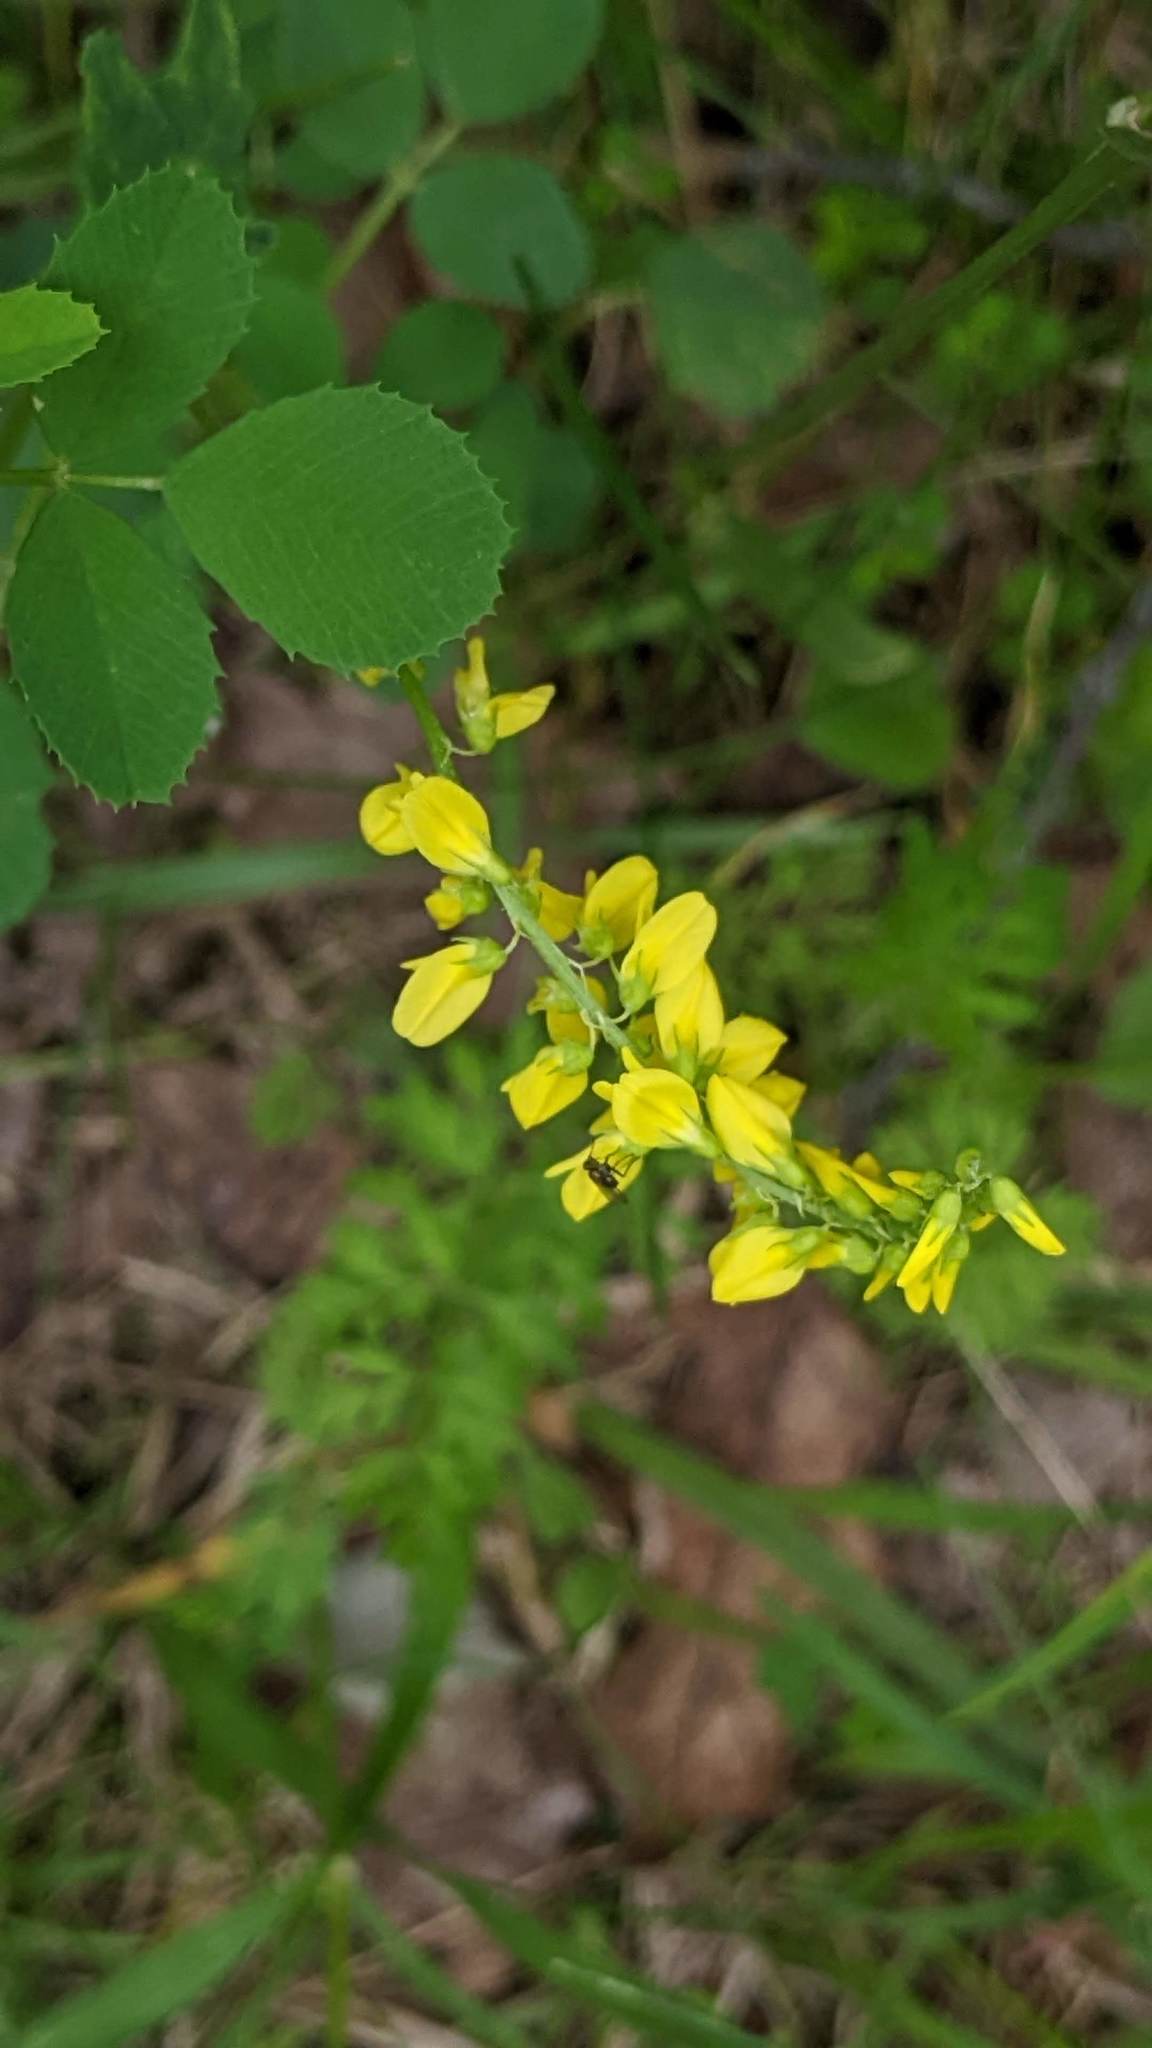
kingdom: Plantae
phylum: Tracheophyta
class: Magnoliopsida
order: Fabales
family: Fabaceae
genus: Melilotus
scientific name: Melilotus officinalis
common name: Sweetclover
